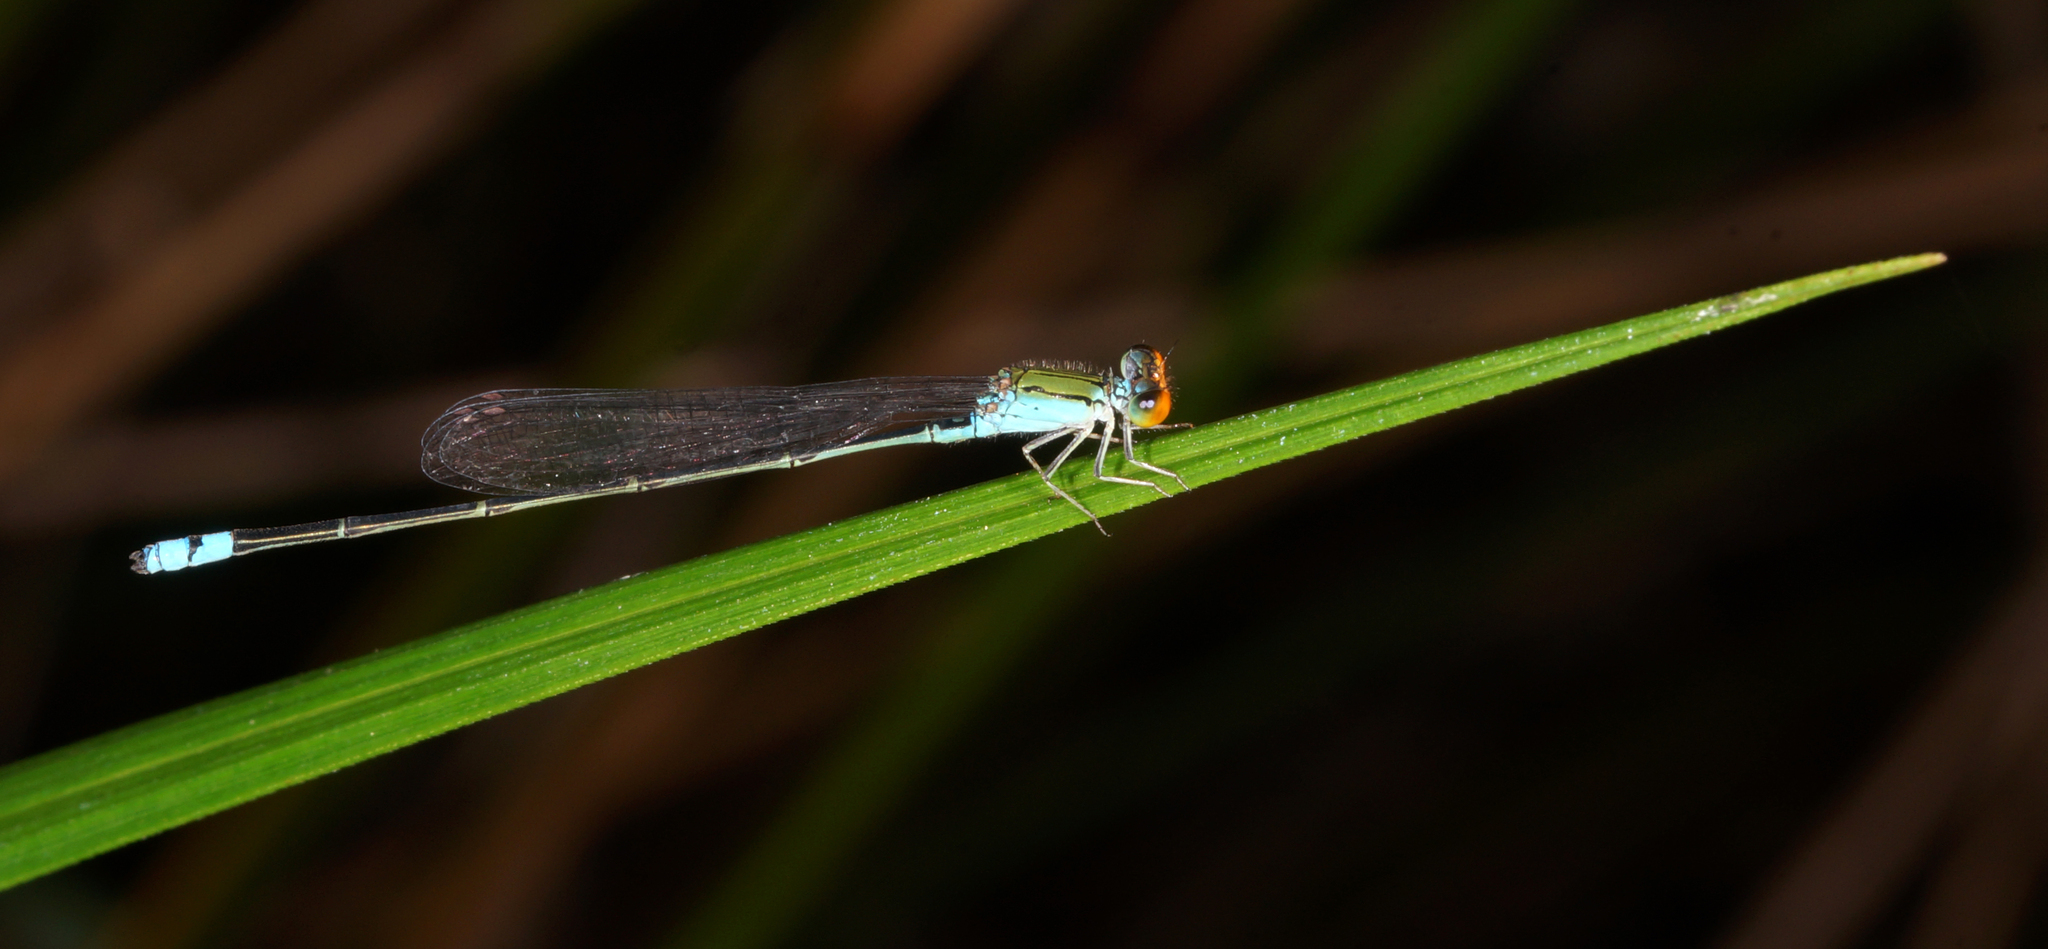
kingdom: Animalia
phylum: Arthropoda
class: Insecta
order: Odonata
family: Coenagrionidae
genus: Pseudagrion
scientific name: Pseudagrion rubriceps
